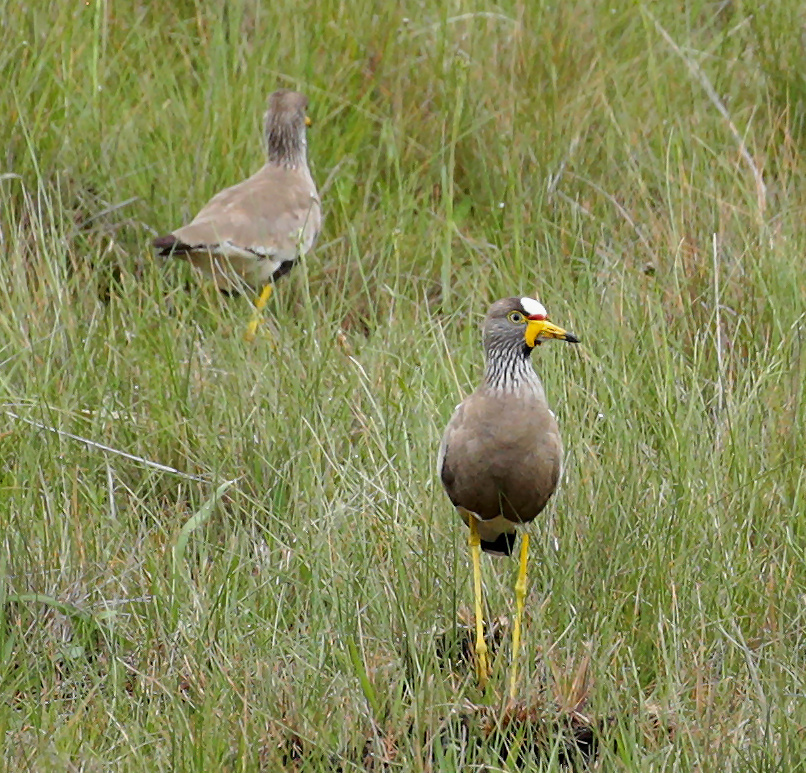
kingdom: Animalia
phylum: Chordata
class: Aves
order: Charadriiformes
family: Charadriidae
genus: Vanellus
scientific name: Vanellus senegallus
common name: African wattled lapwing
